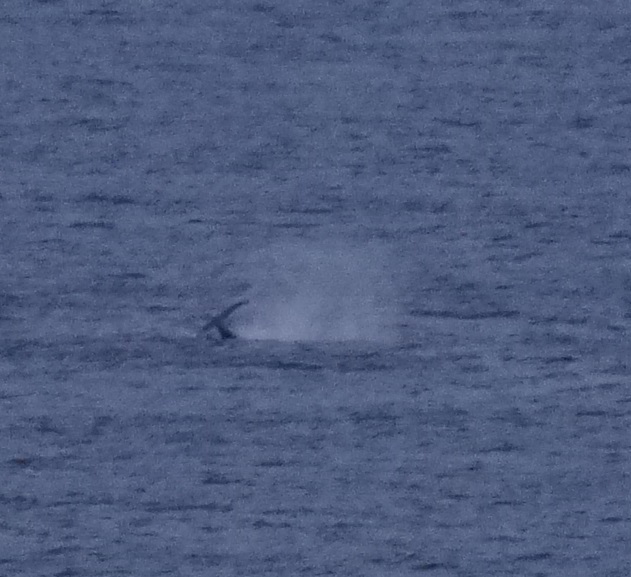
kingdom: Animalia
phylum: Chordata
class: Mammalia
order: Cetacea
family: Balaenopteridae
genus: Megaptera
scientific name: Megaptera novaeangliae
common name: Humpback whale
